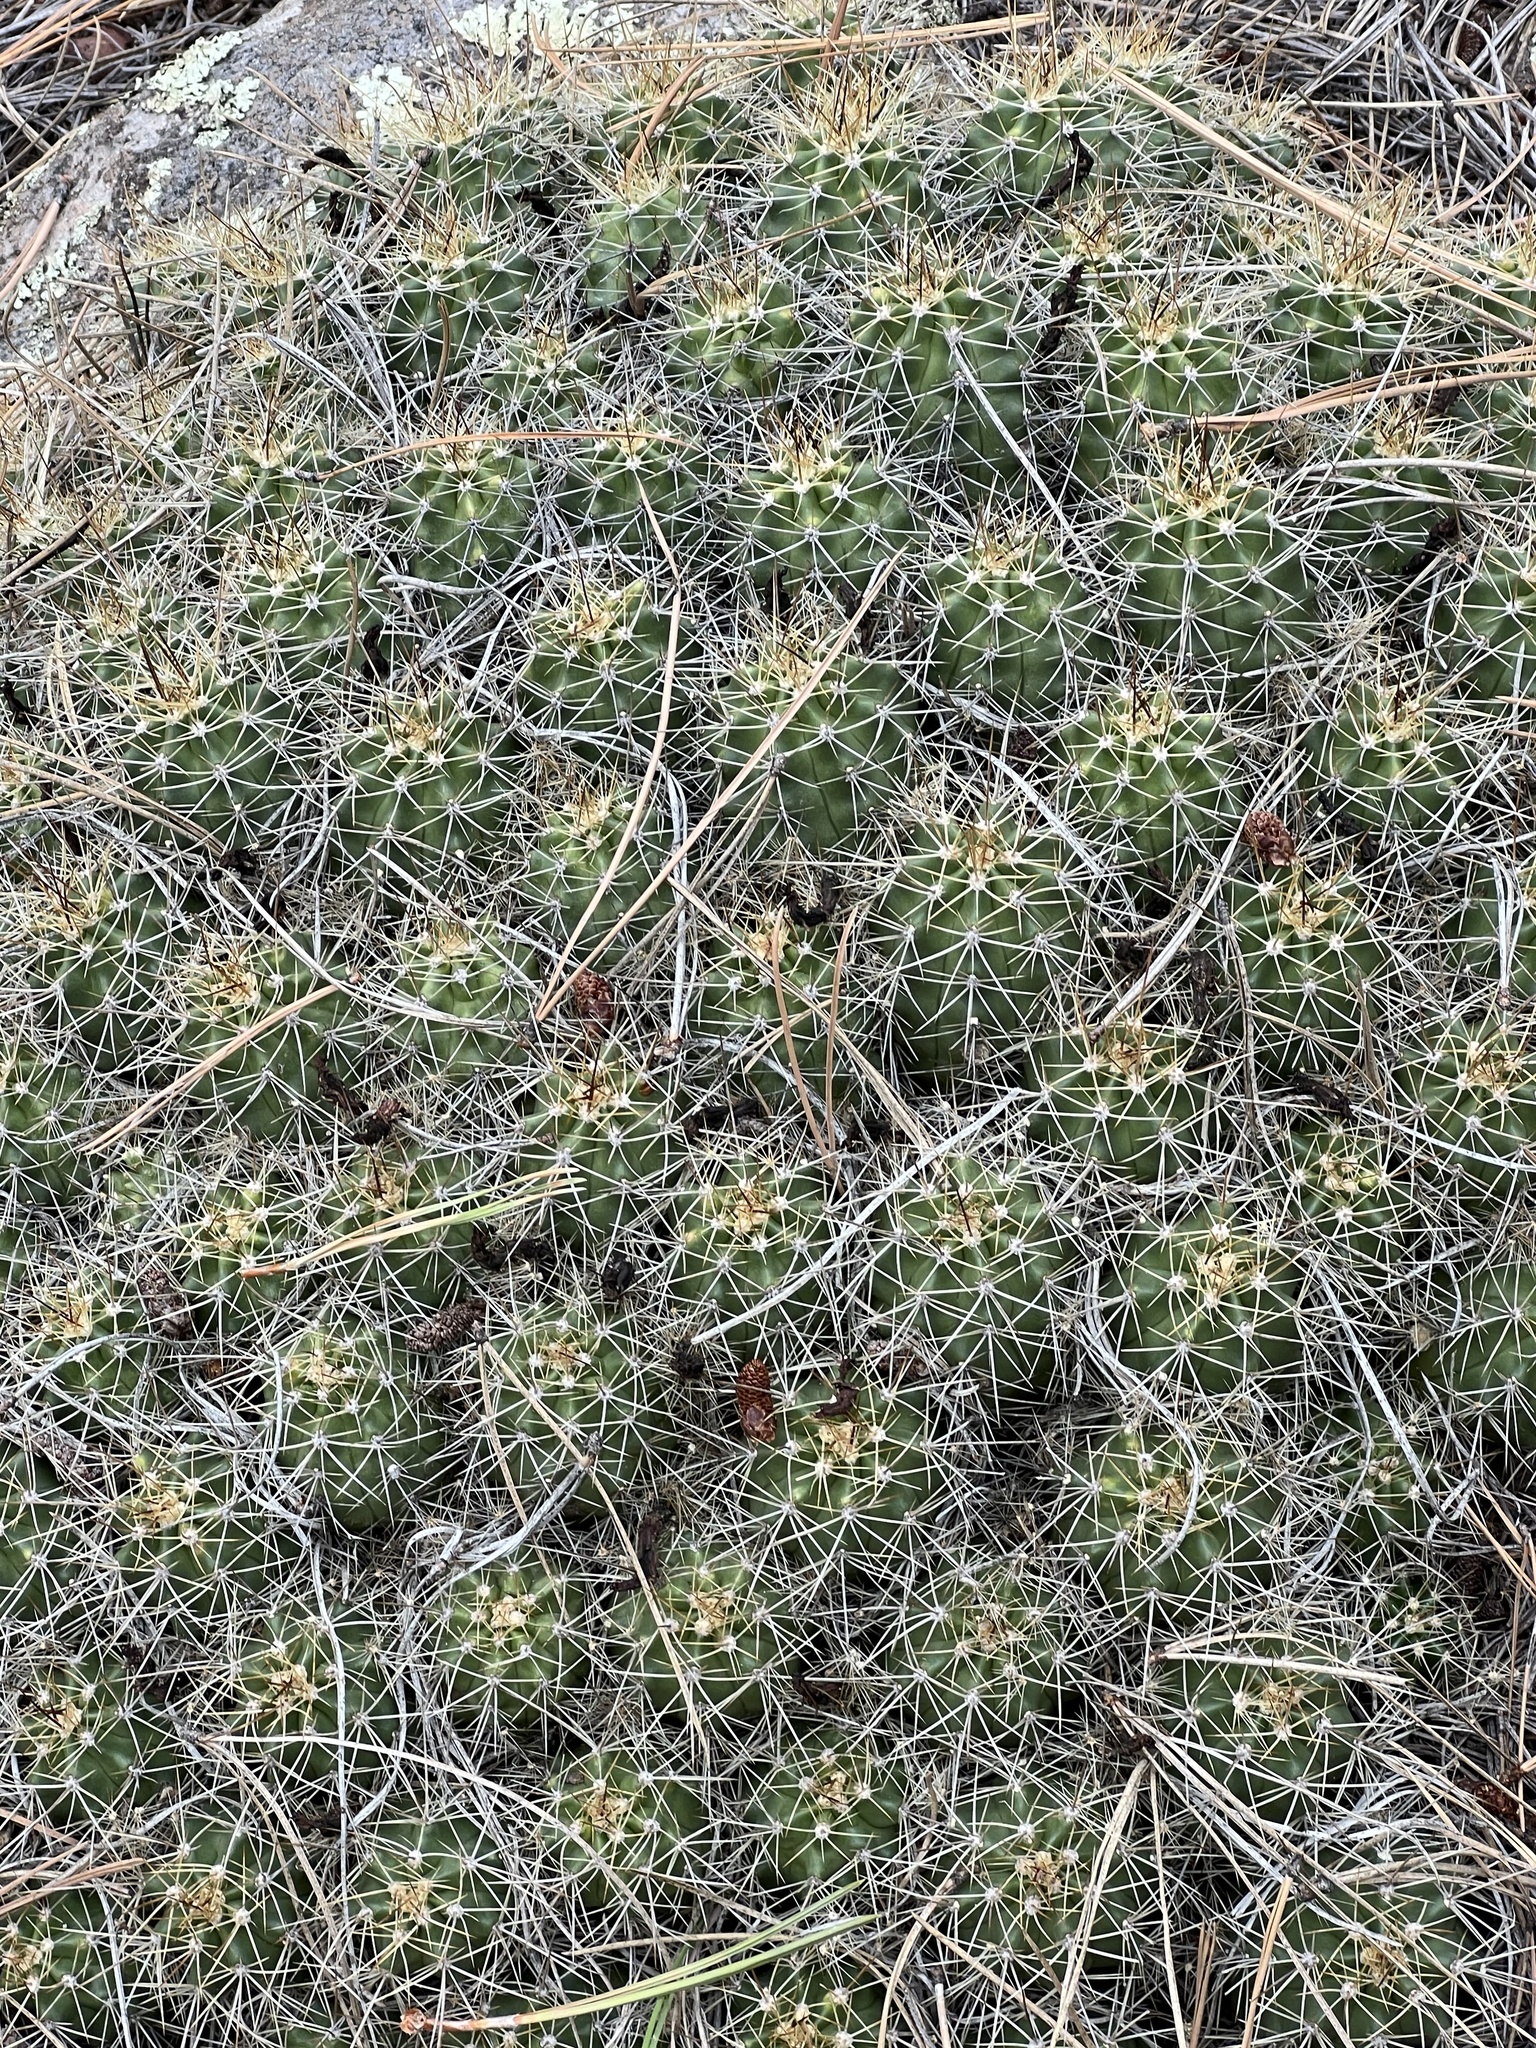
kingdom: Plantae
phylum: Tracheophyta
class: Magnoliopsida
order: Caryophyllales
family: Cactaceae
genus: Echinocereus
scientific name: Echinocereus bakeri
